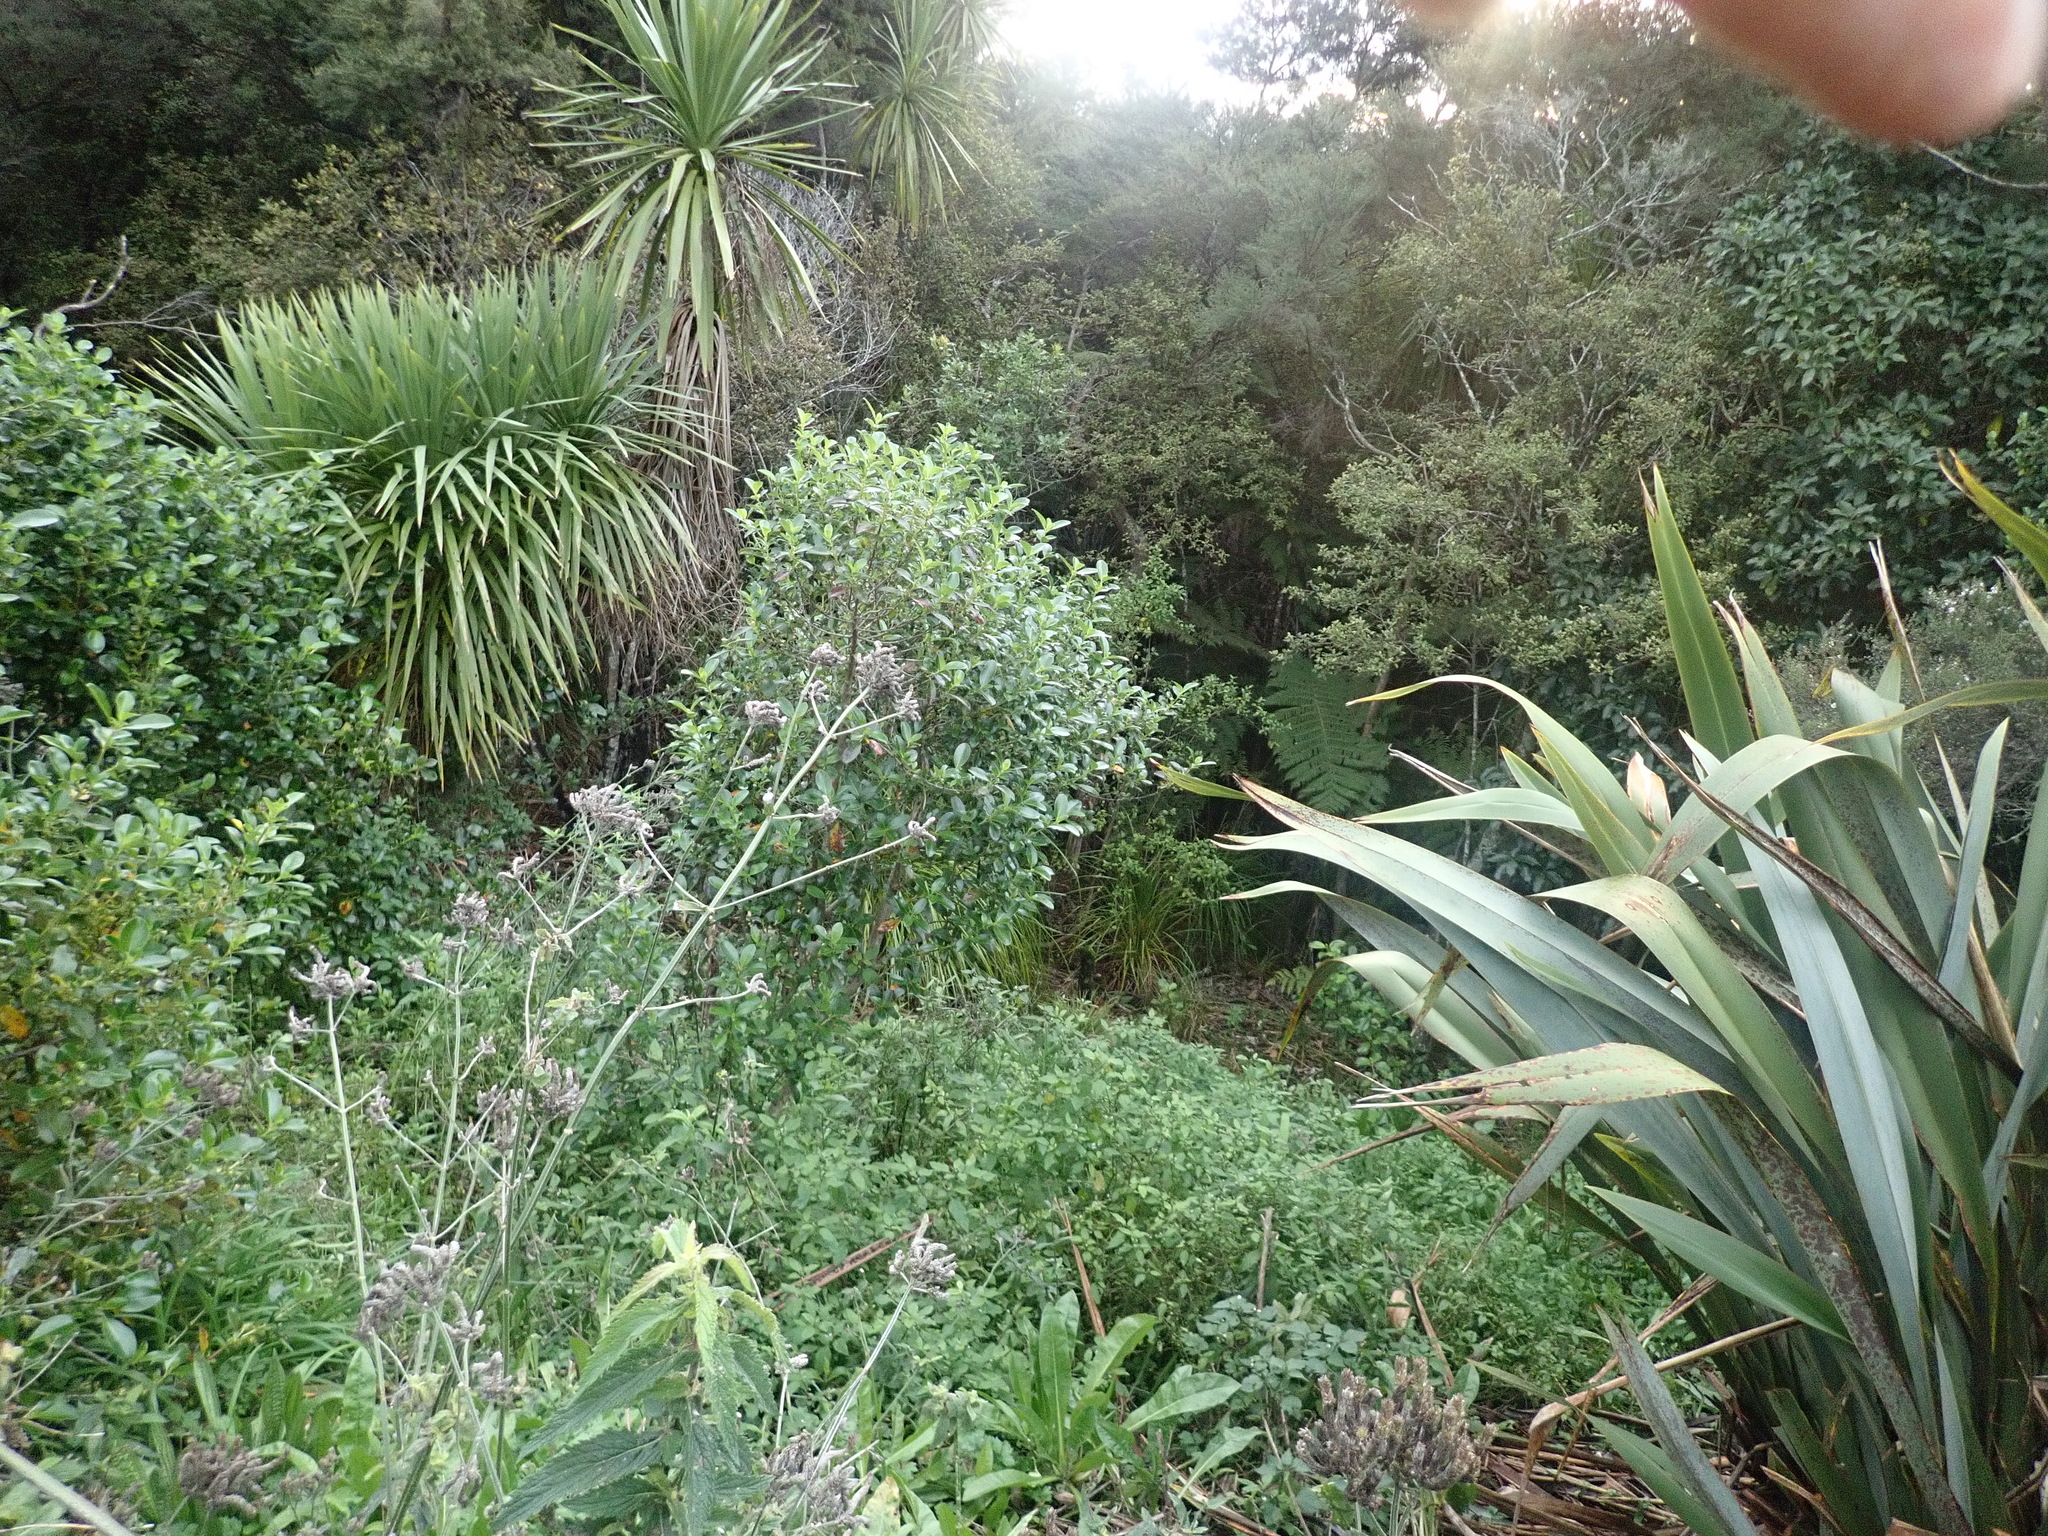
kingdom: Plantae
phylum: Tracheophyta
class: Magnoliopsida
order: Lamiales
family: Verbenaceae
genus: Verbena
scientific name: Verbena incompta
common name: Purpletop vervain
